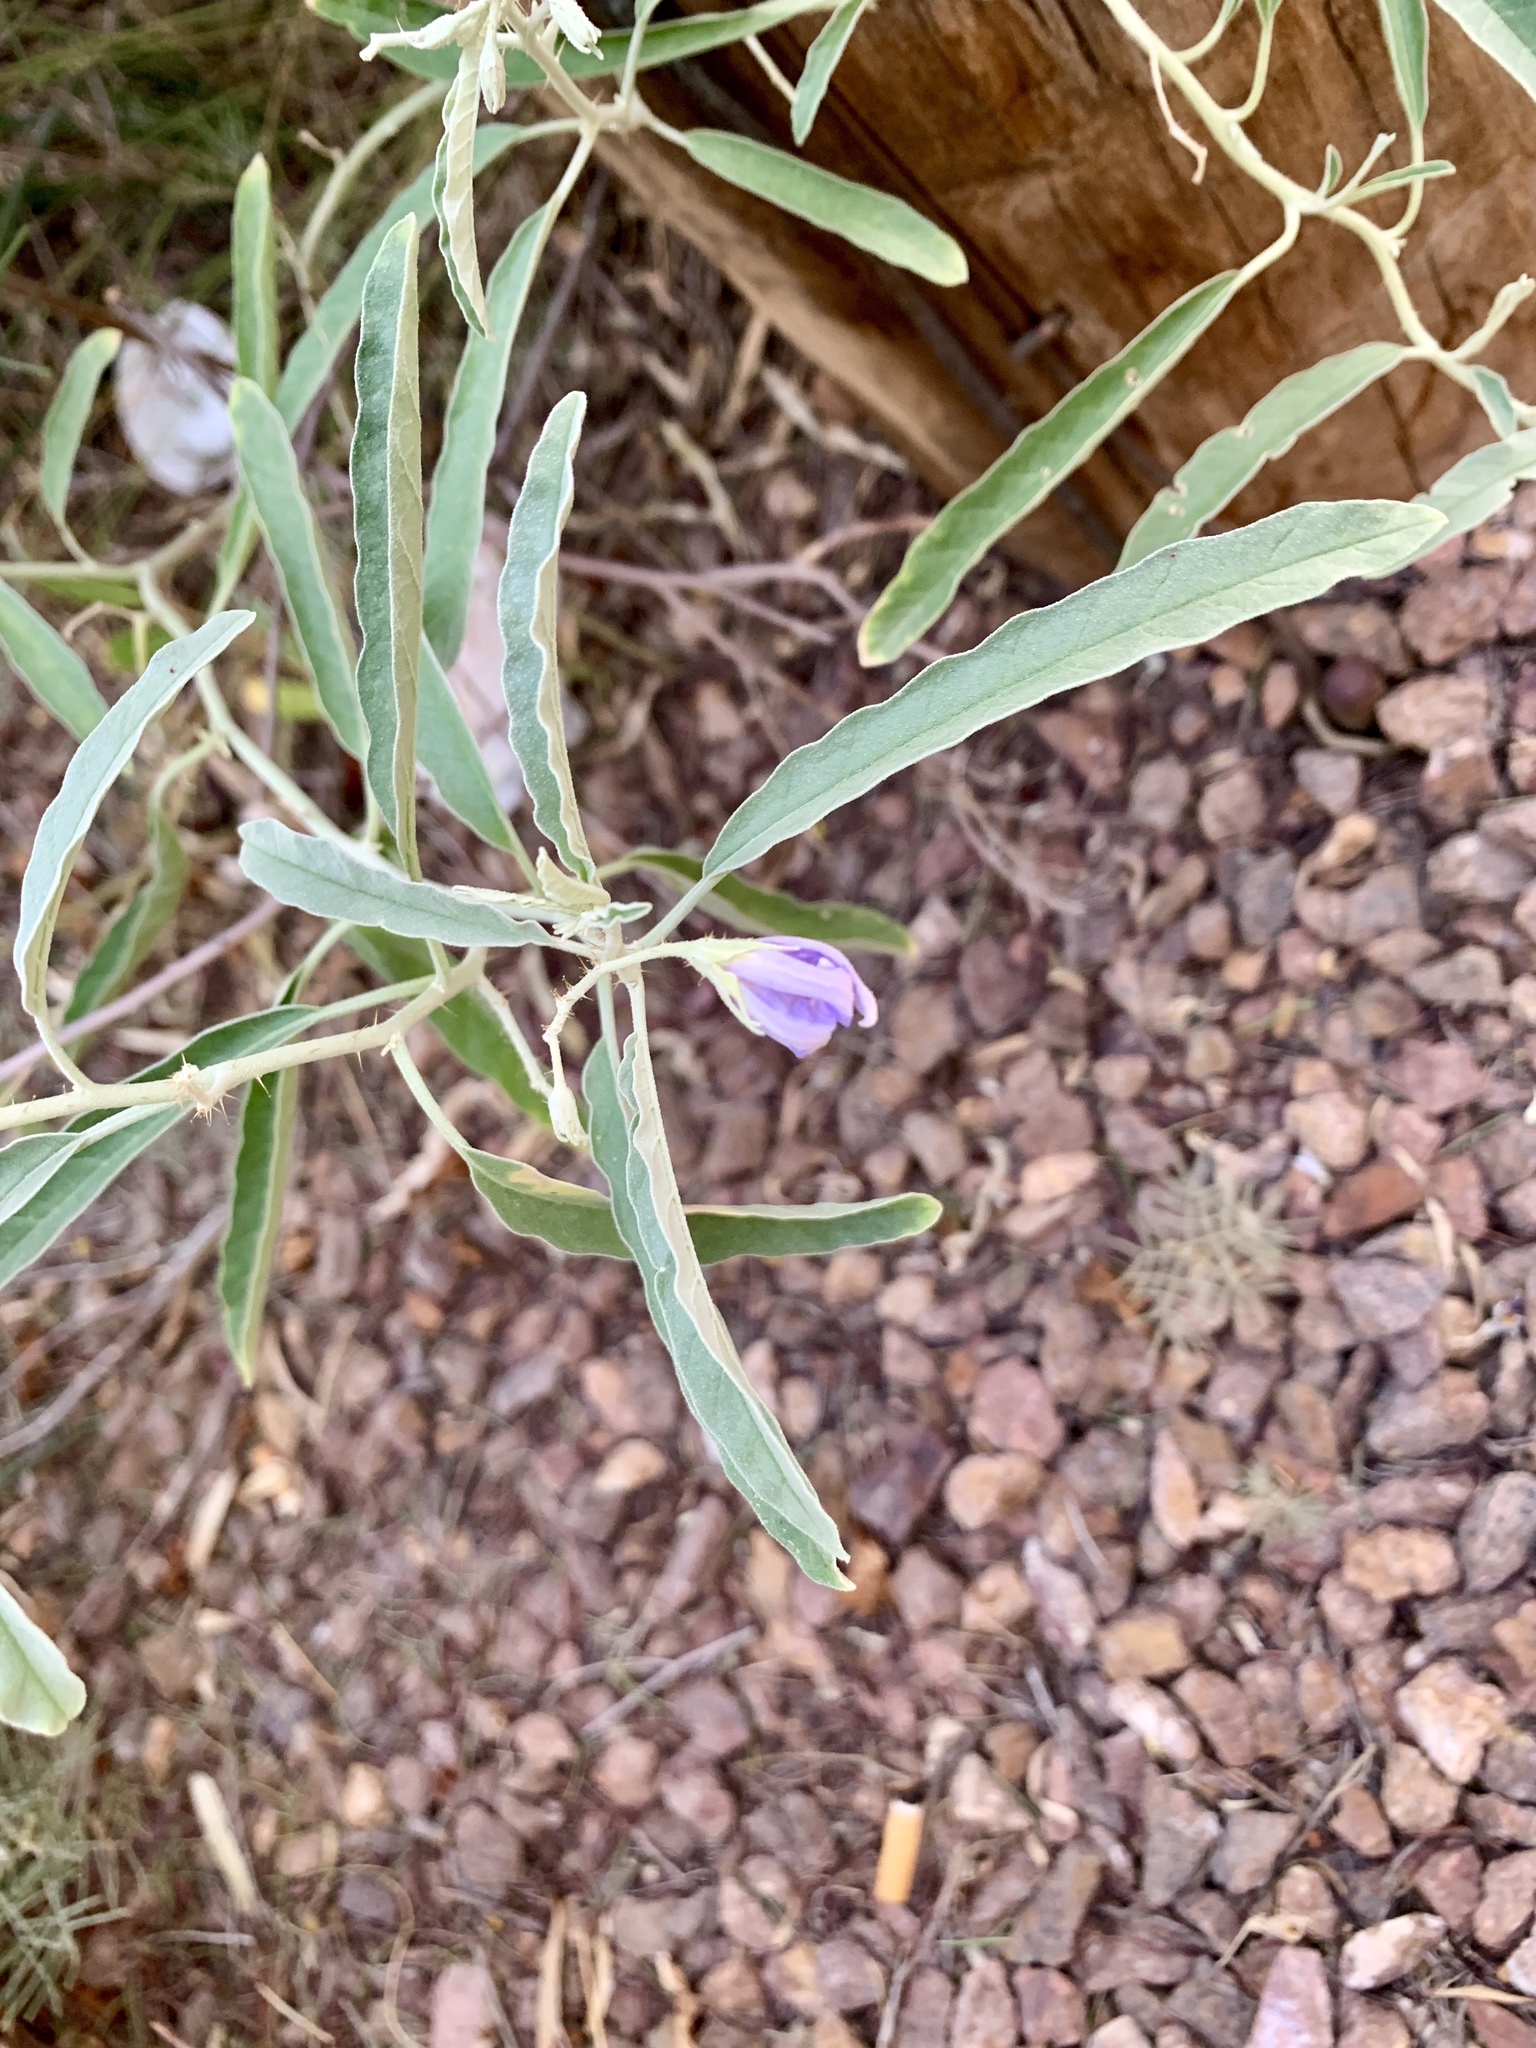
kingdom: Plantae
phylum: Tracheophyta
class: Magnoliopsida
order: Solanales
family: Solanaceae
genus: Solanum
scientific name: Solanum elaeagnifolium
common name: Silverleaf nightshade
